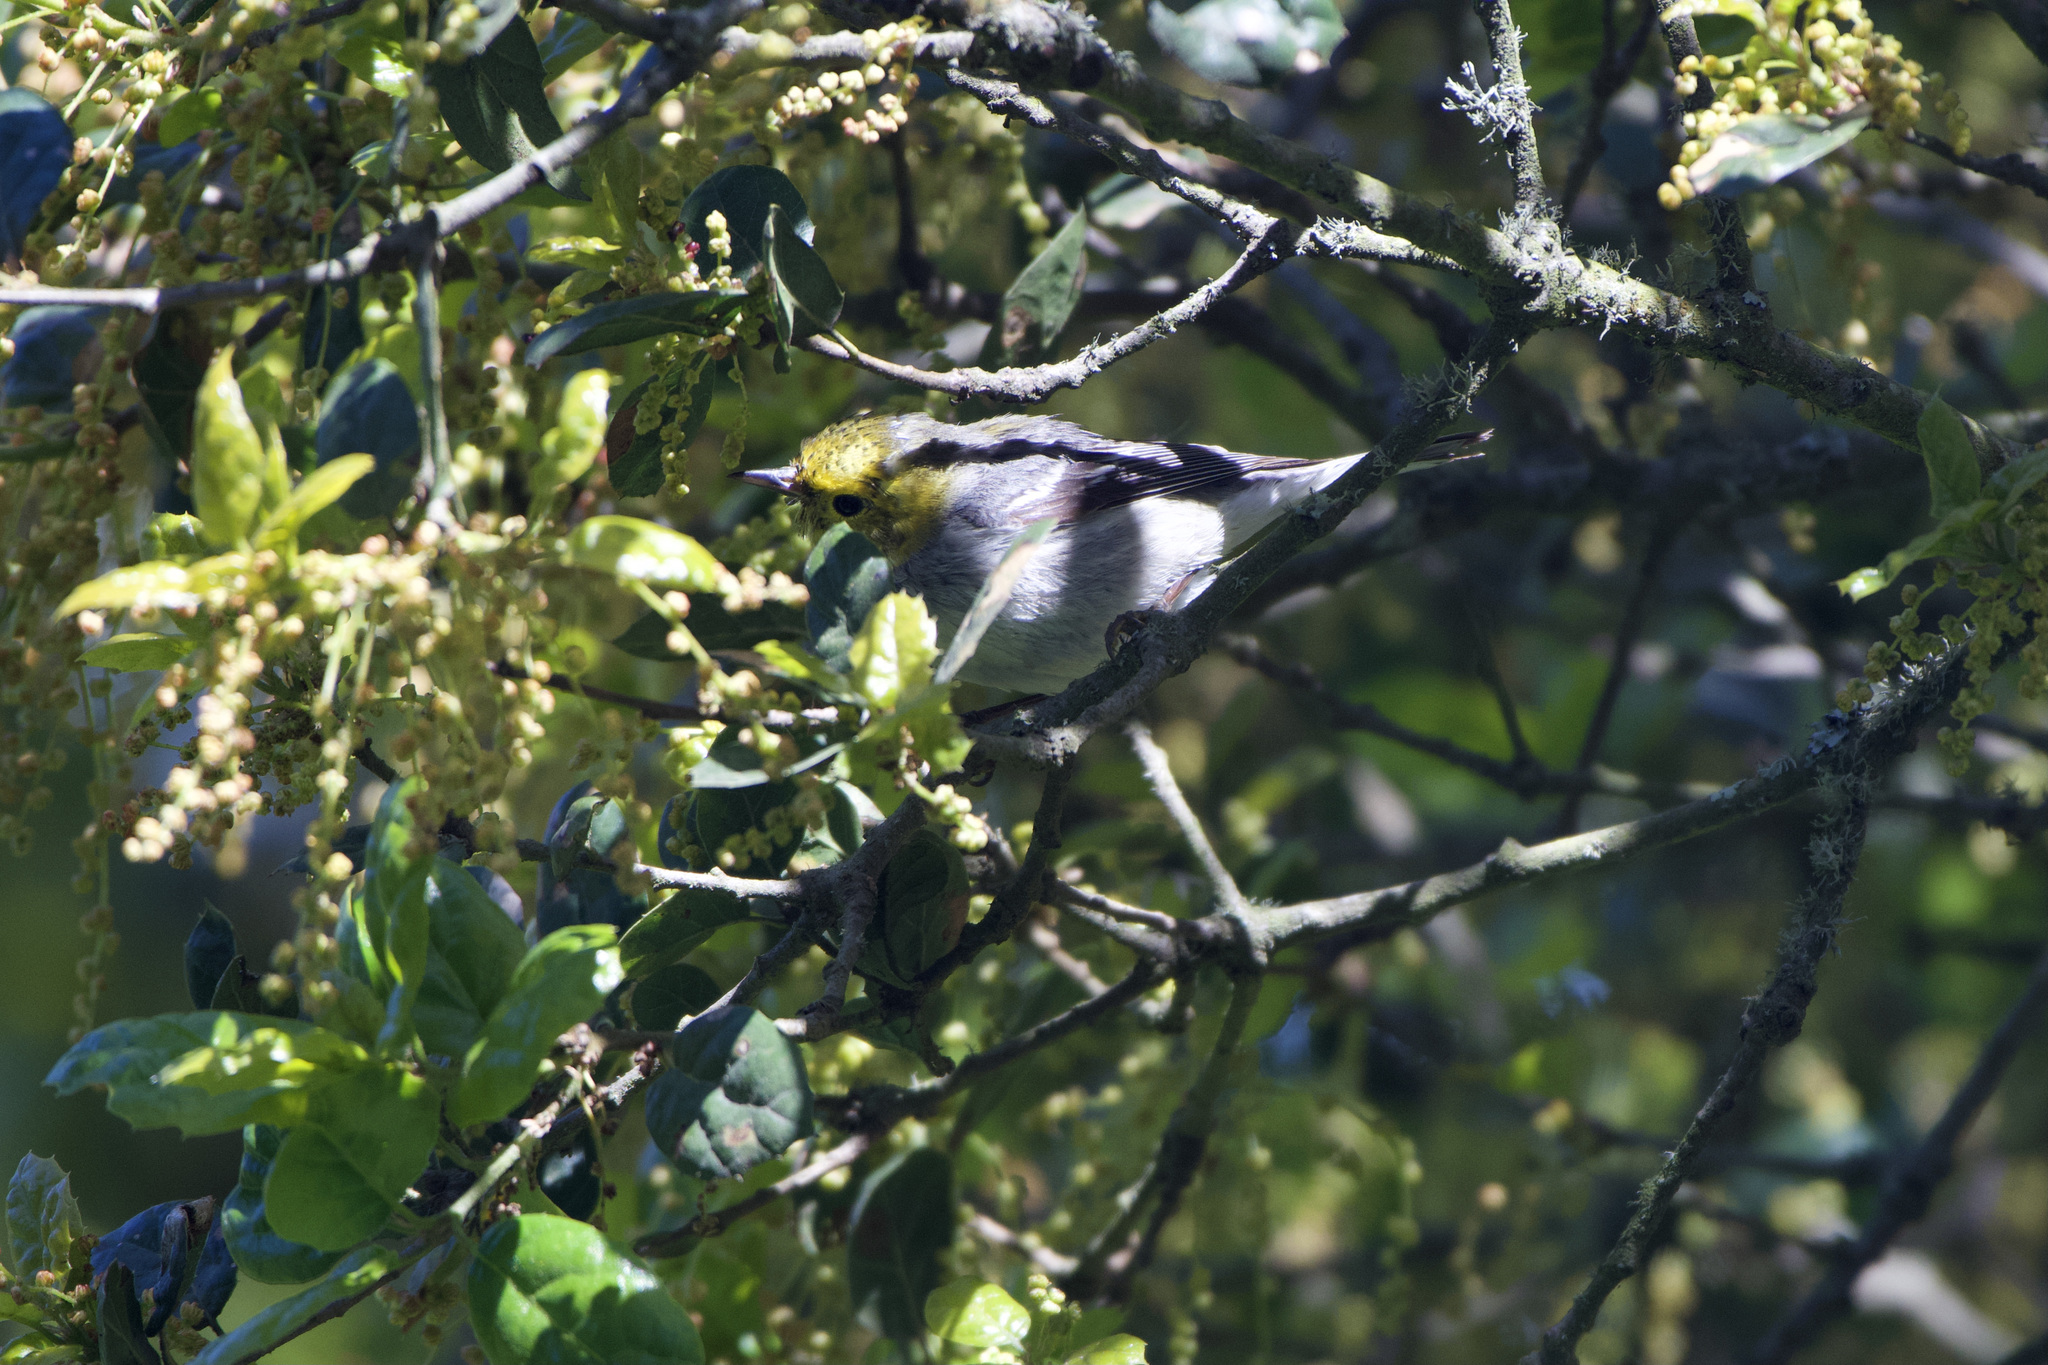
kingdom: Animalia
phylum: Chordata
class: Aves
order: Passeriformes
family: Parulidae
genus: Setophaga
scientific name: Setophaga occidentalis
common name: Hermit warbler
